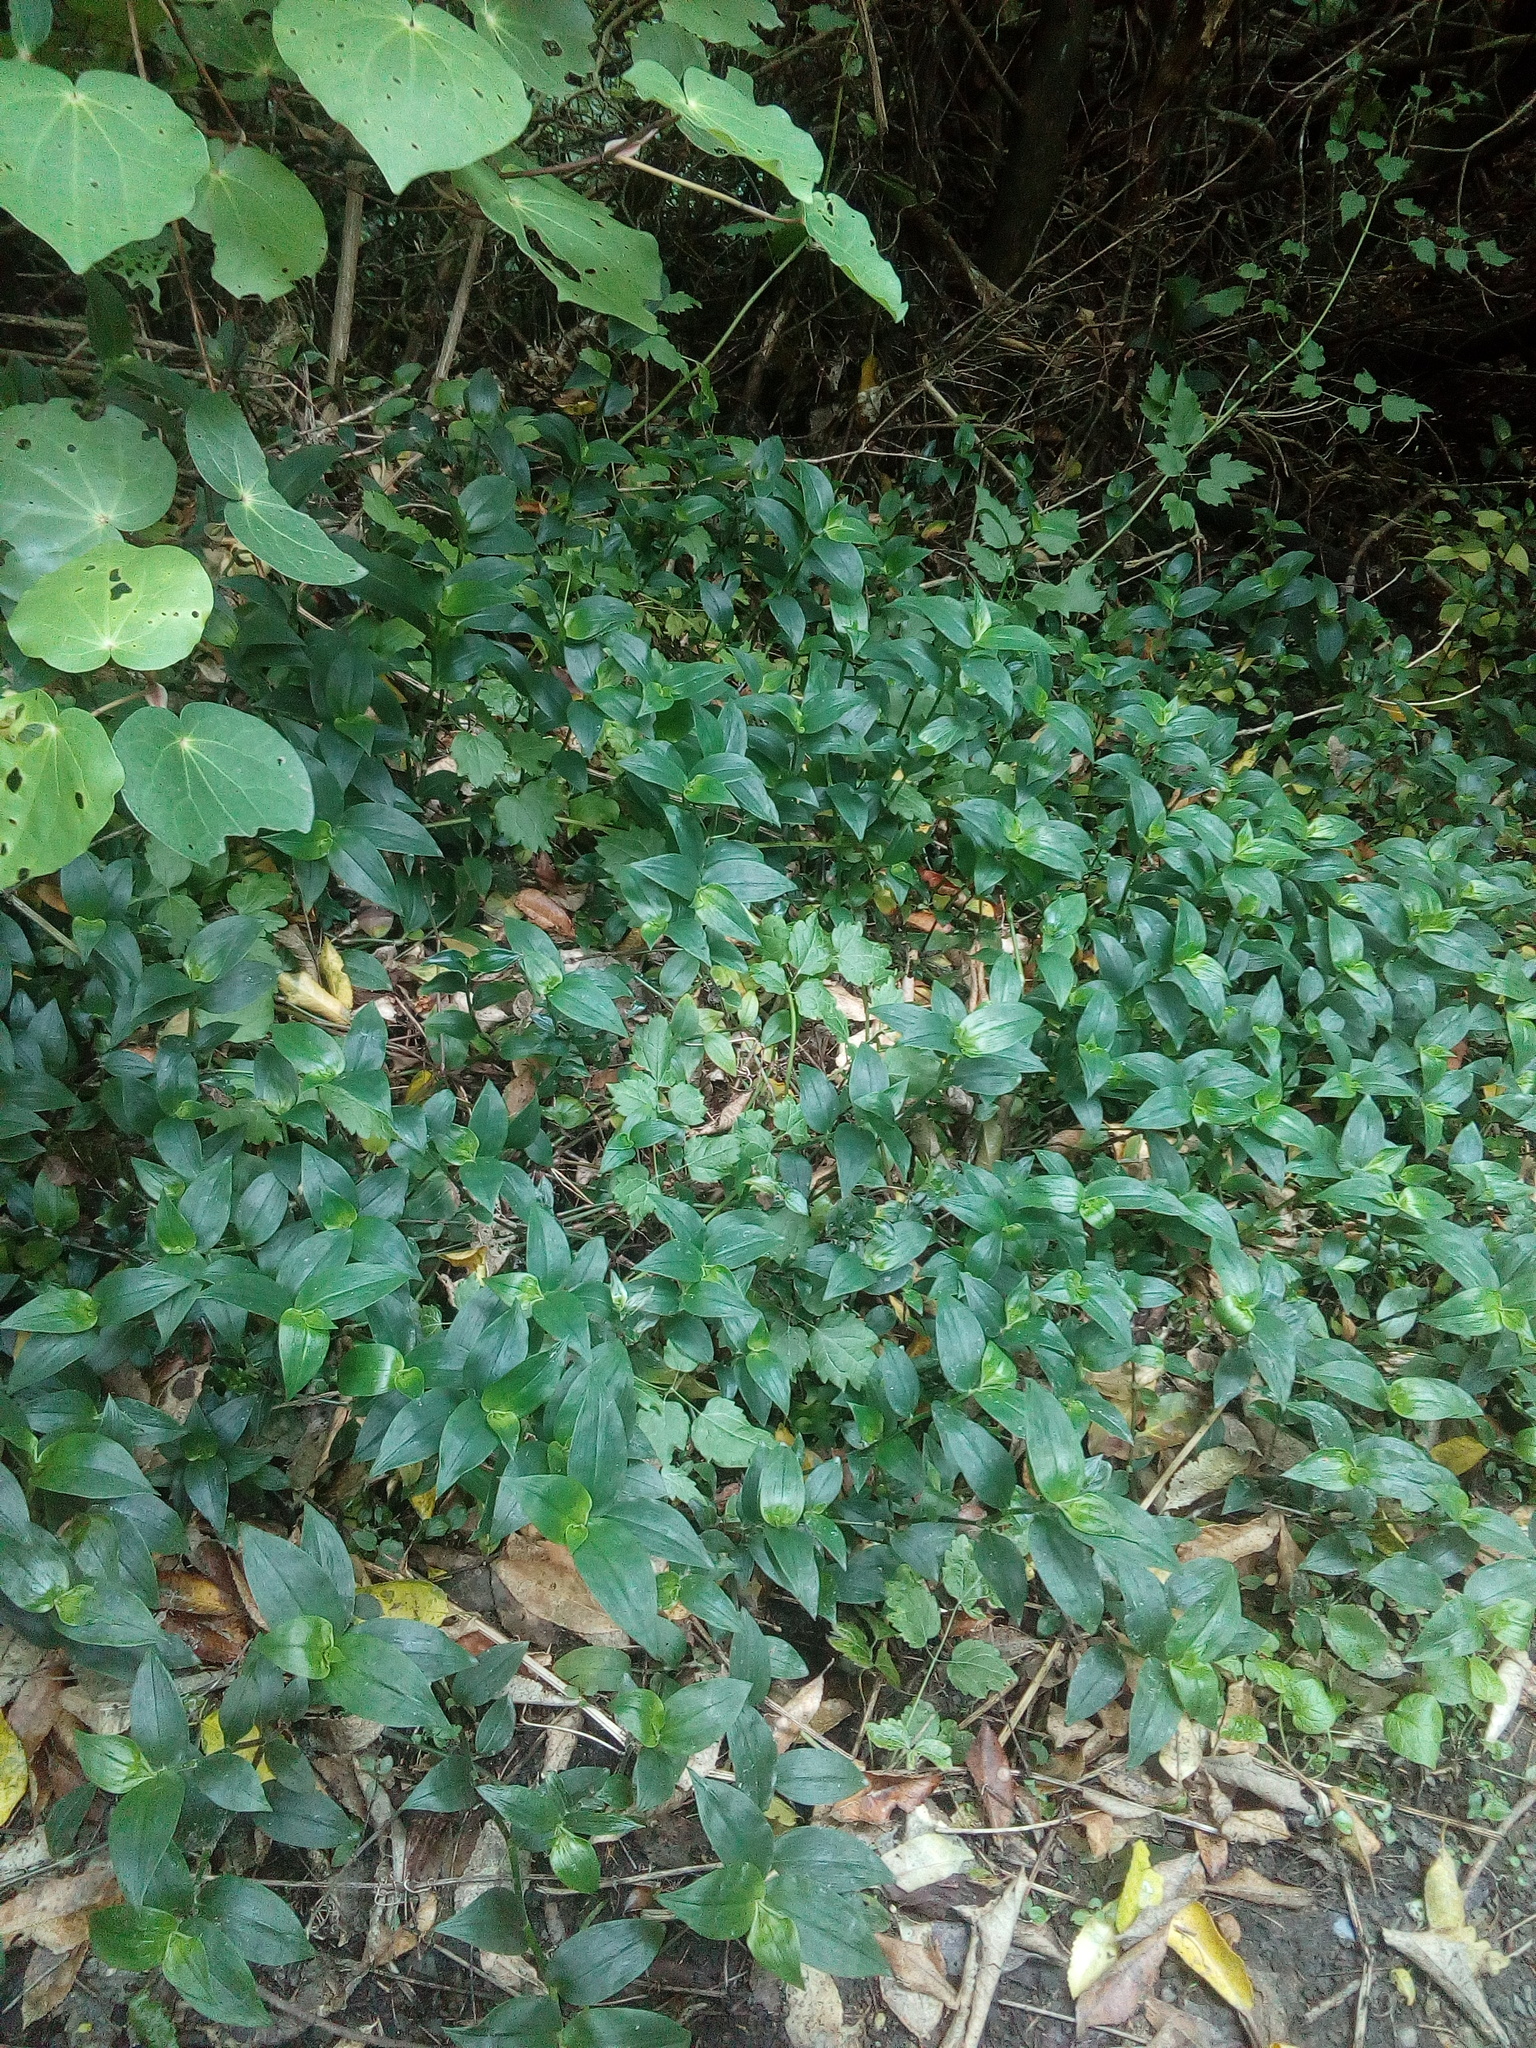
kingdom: Plantae
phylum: Tracheophyta
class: Magnoliopsida
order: Ranunculales
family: Ranunculaceae
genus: Clematis
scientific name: Clematis vitalba
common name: Evergreen clematis
